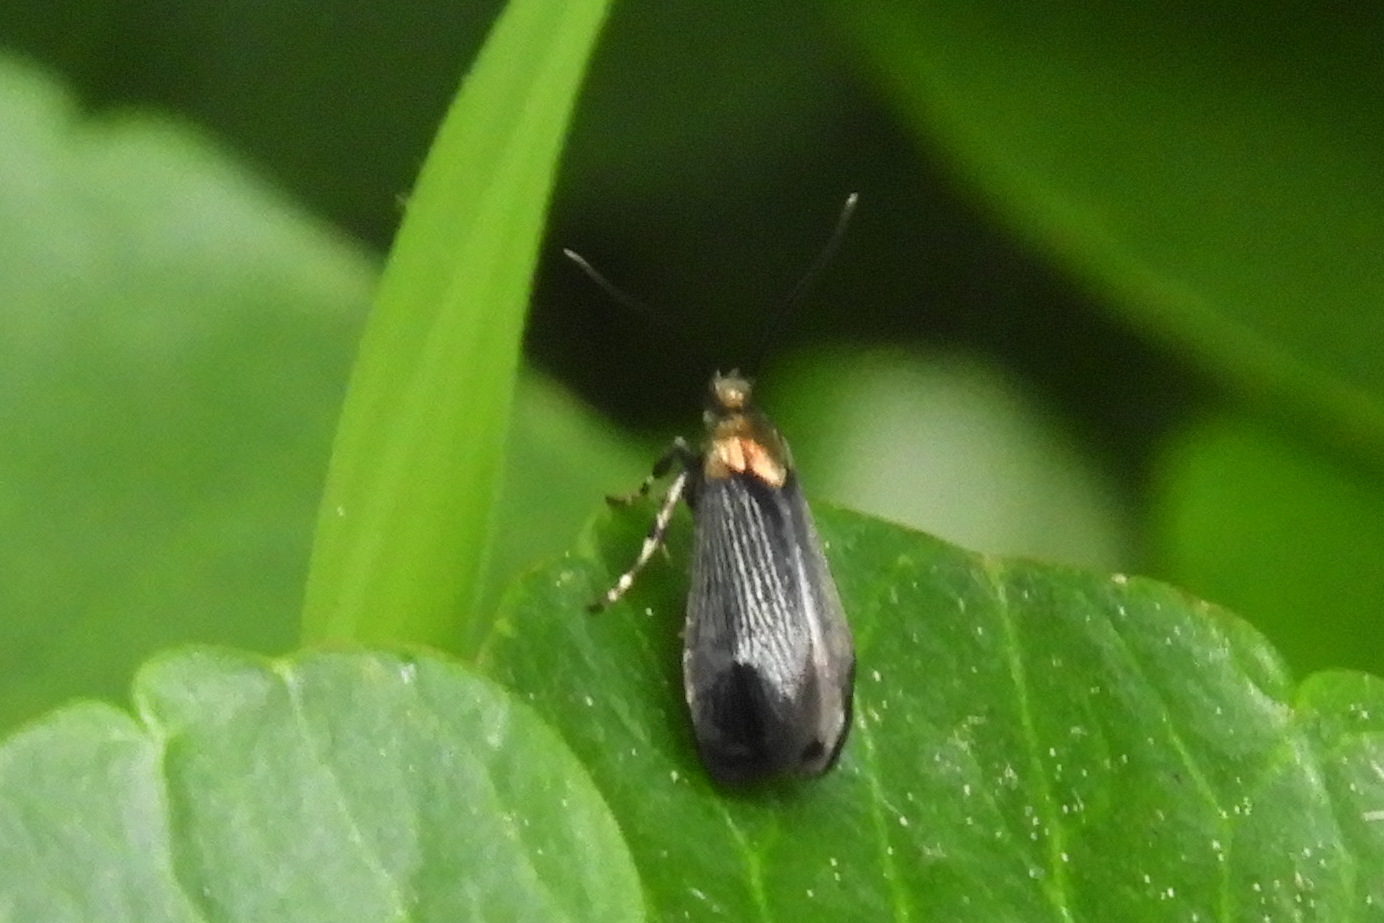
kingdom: Animalia
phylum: Arthropoda
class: Insecta
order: Lepidoptera
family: Incurvariidae
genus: Paraclemensia
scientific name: Paraclemensia acerifoliella
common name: Maple leafcutter
